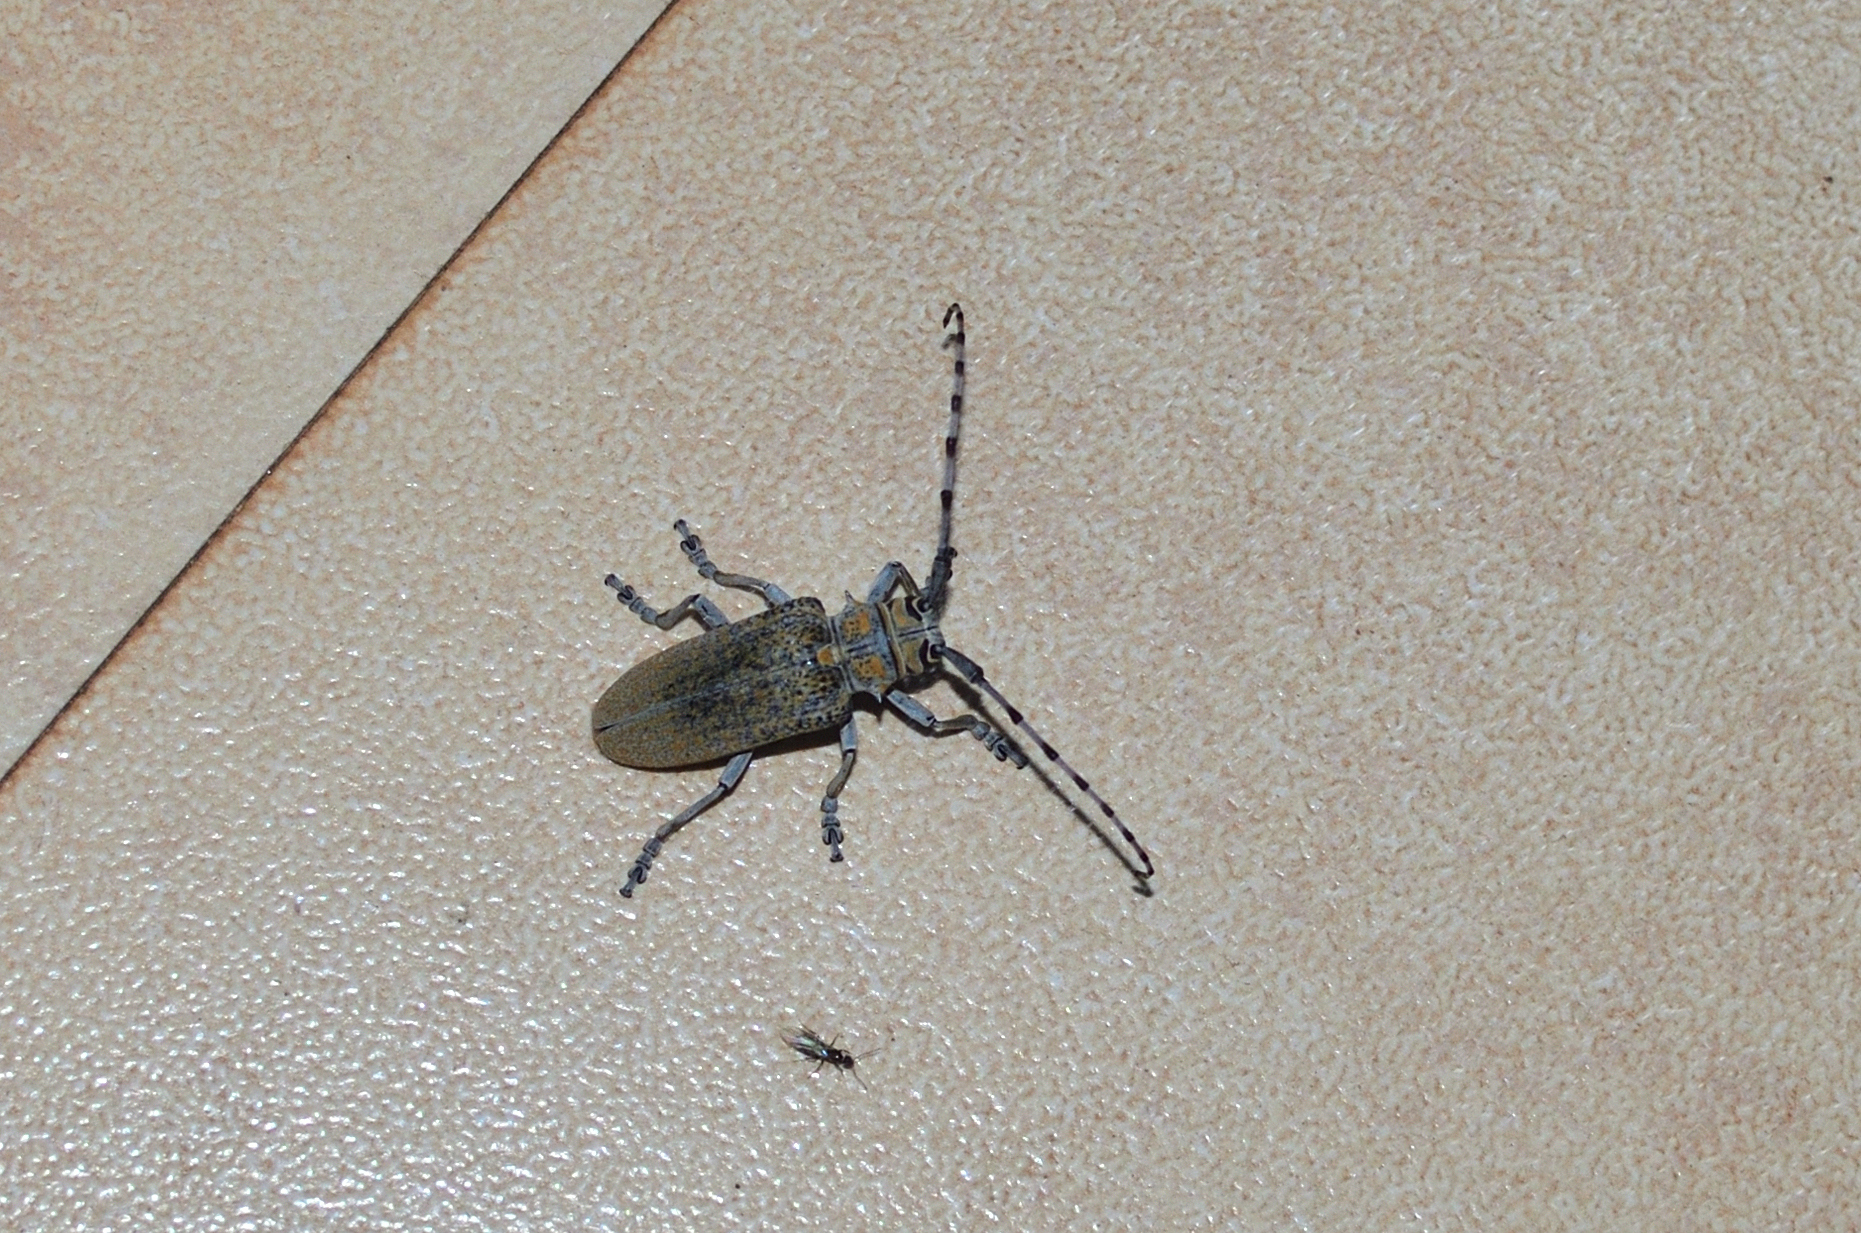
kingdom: Animalia
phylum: Arthropoda
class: Insecta
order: Coleoptera
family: Cerambycidae
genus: Cerosterna
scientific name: Cerosterna scabrator
